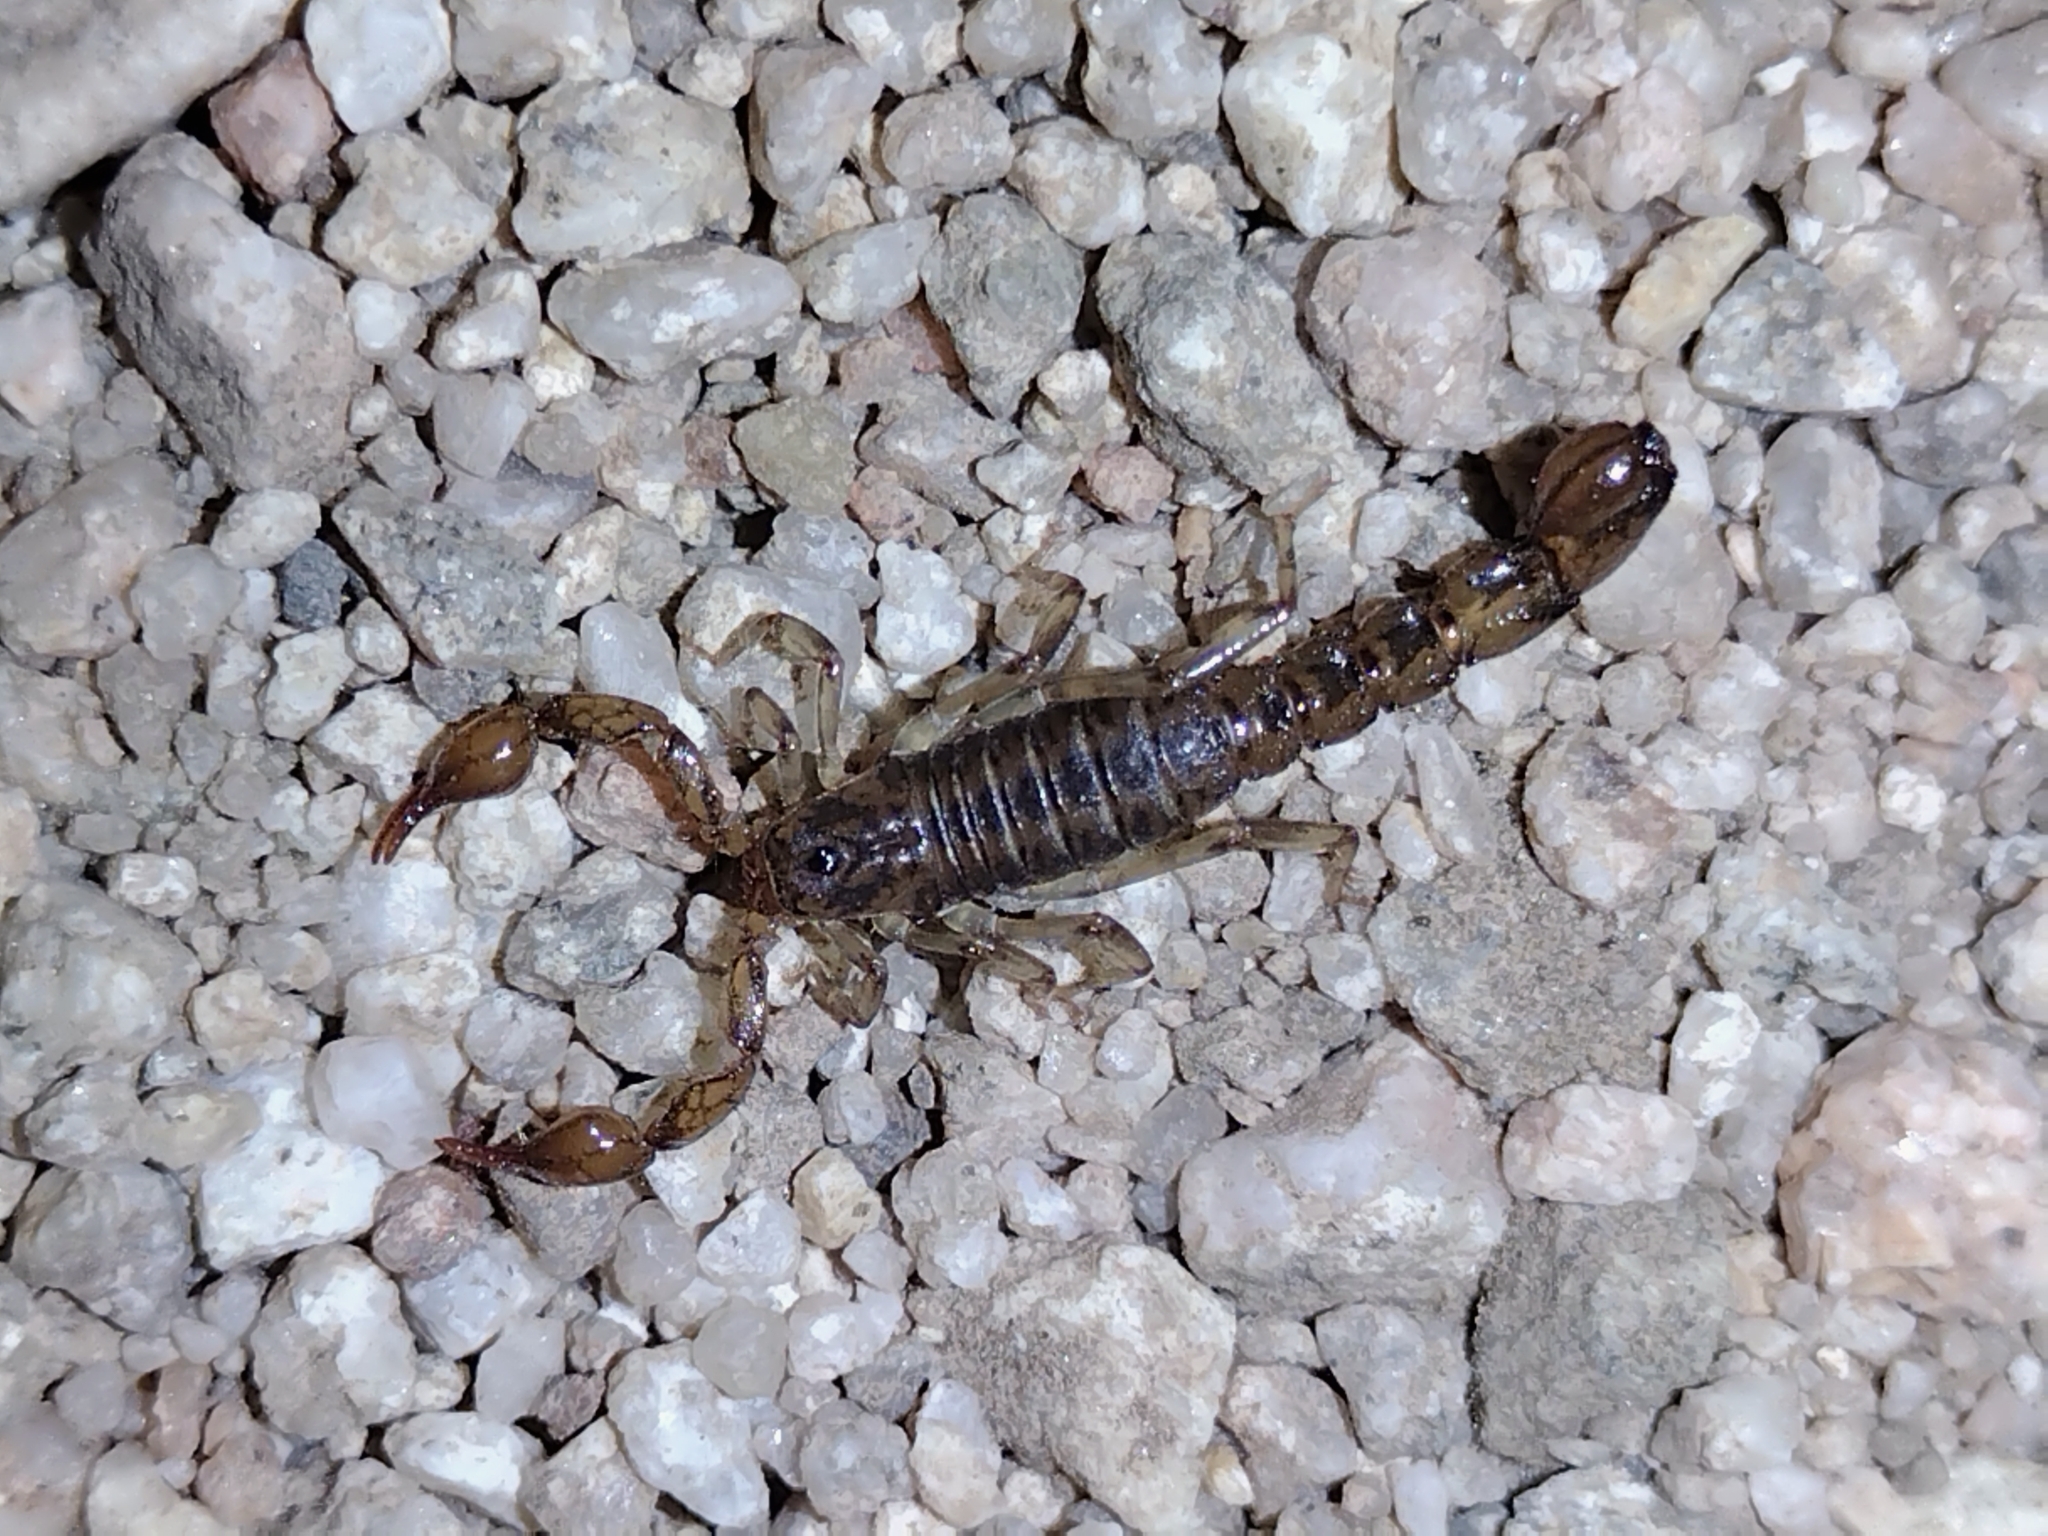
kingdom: Animalia
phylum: Arthropoda
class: Arachnida
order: Scorpiones
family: Superstitioniidae
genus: Superstitionia
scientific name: Superstitionia donensis
